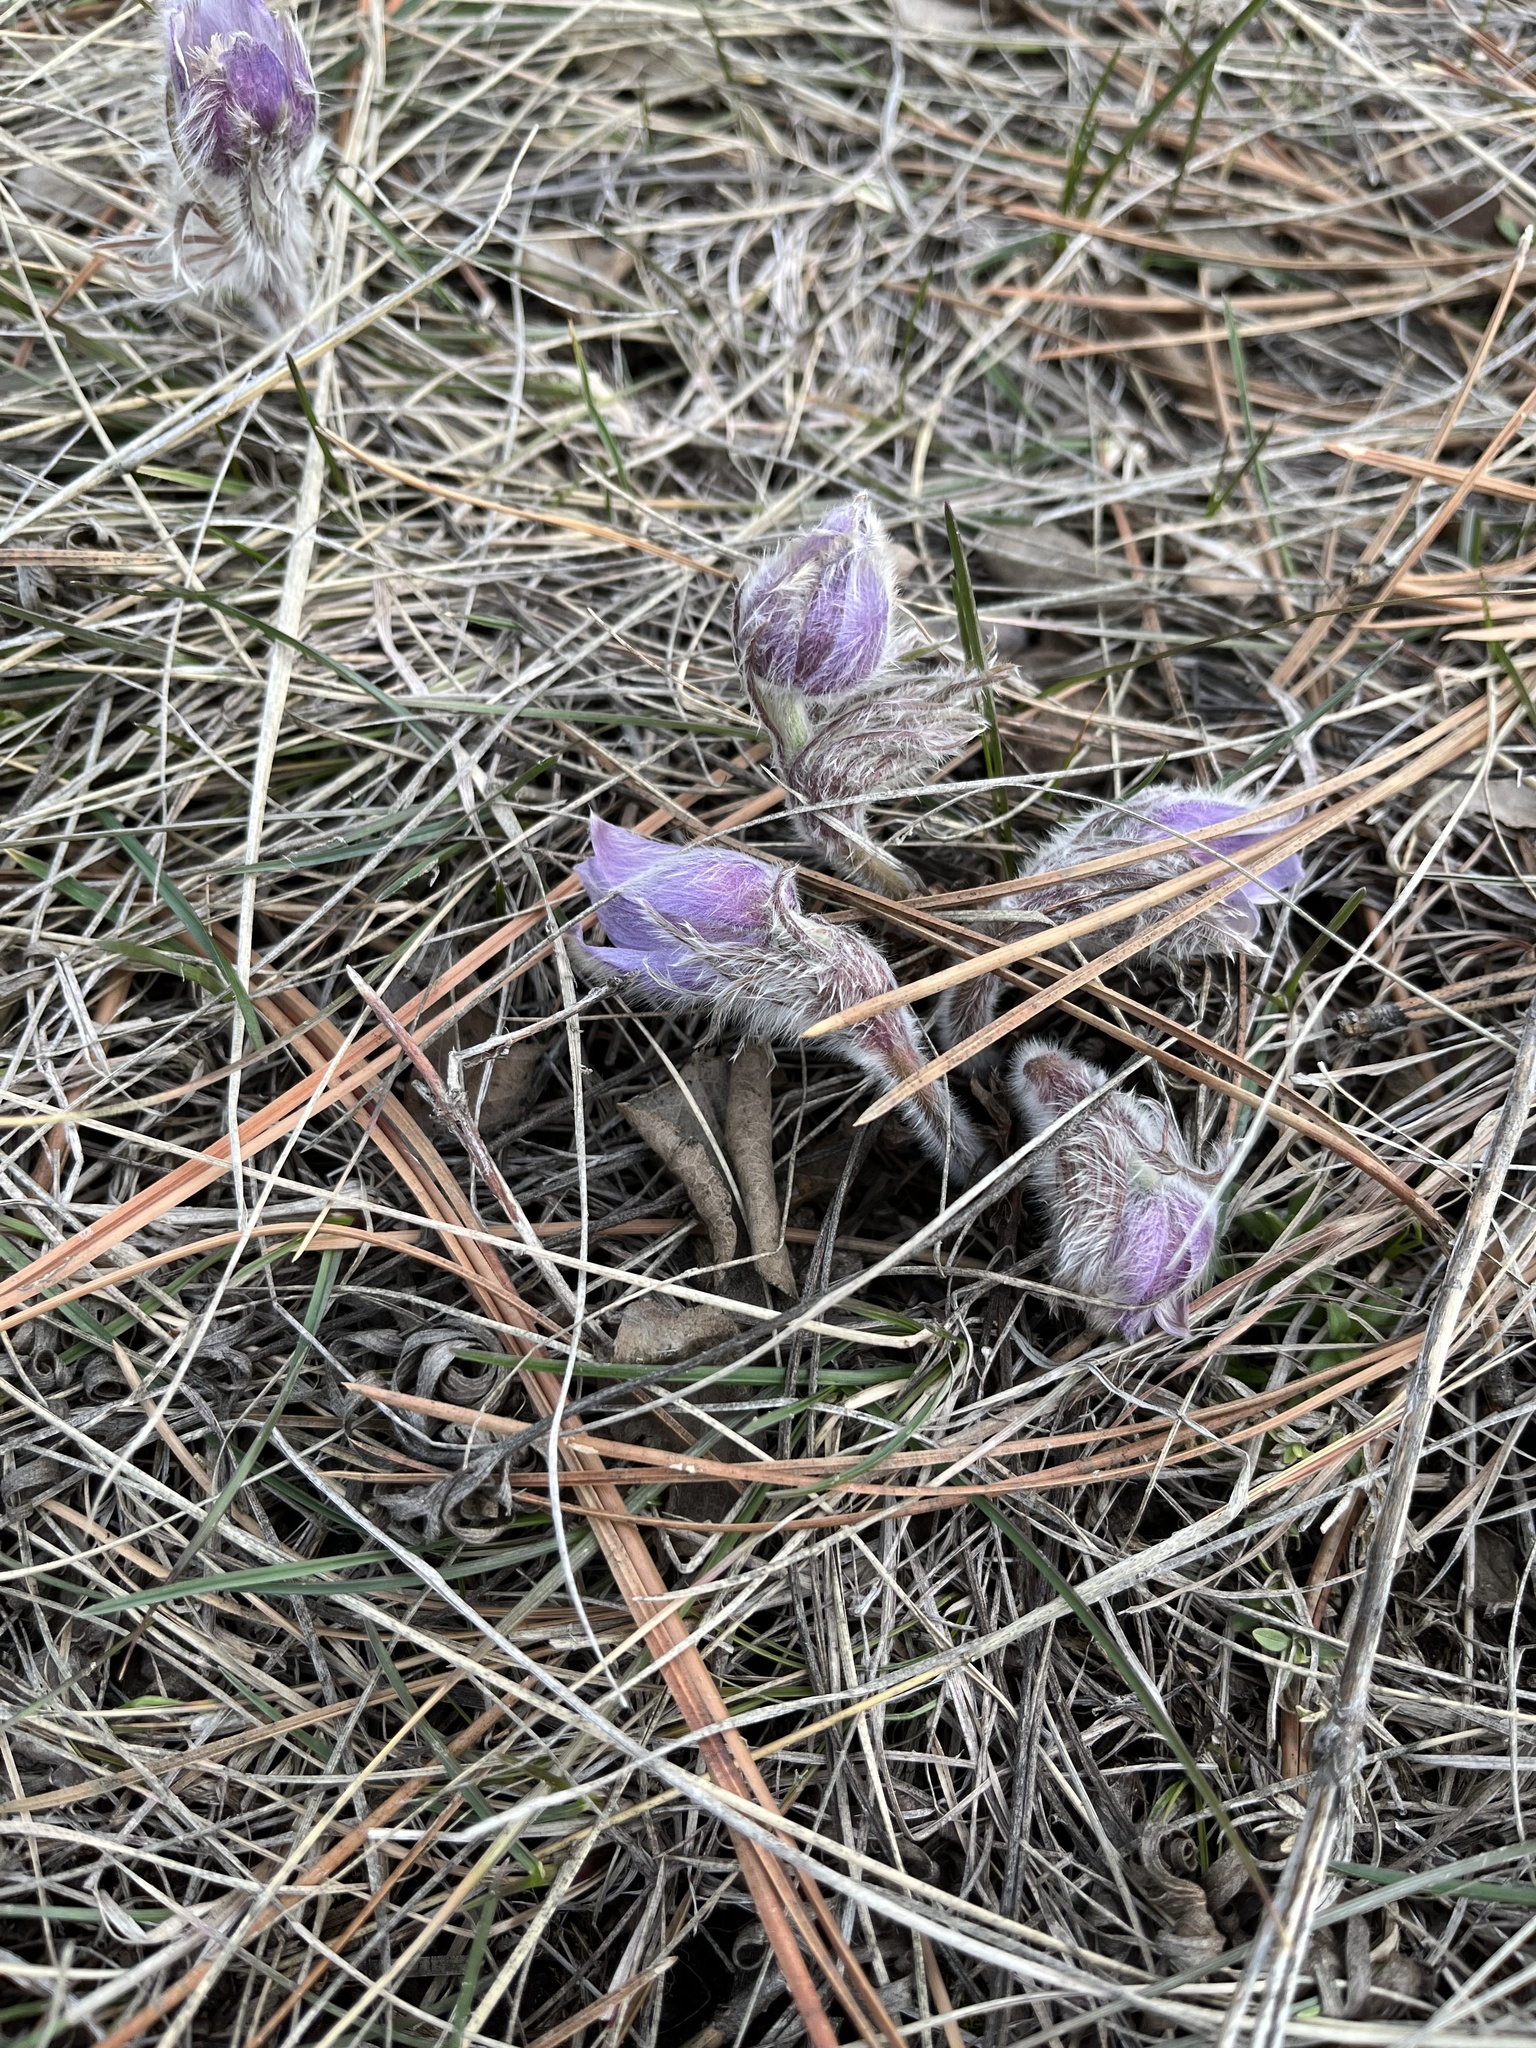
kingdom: Plantae
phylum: Tracheophyta
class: Magnoliopsida
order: Ranunculales
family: Ranunculaceae
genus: Pulsatilla
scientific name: Pulsatilla nuttalliana
